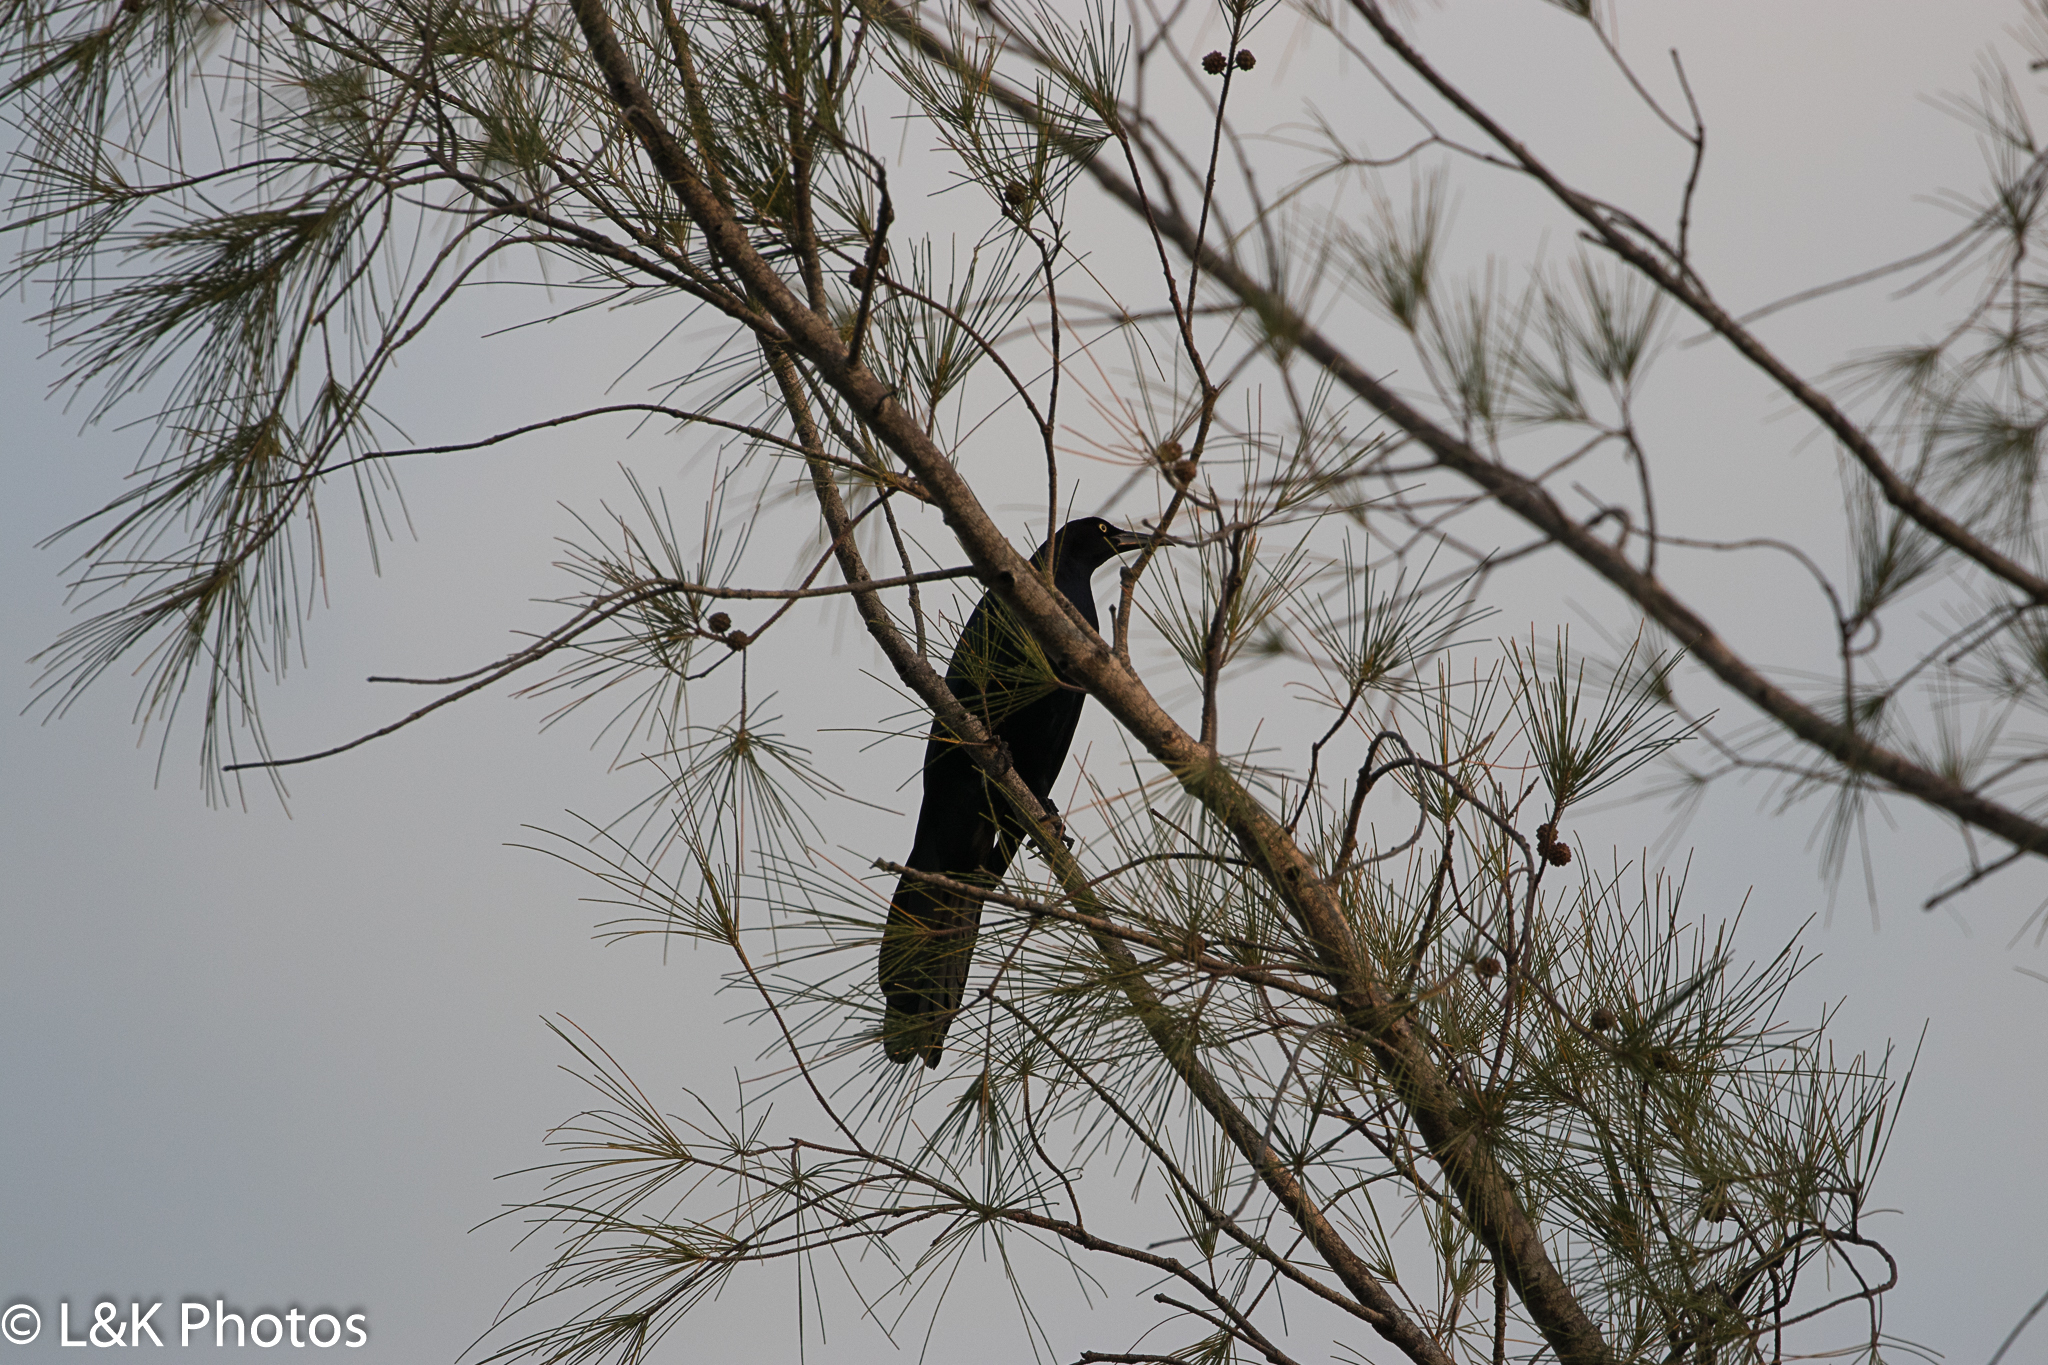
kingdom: Animalia
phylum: Chordata
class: Aves
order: Passeriformes
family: Icteridae
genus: Quiscalus
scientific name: Quiscalus mexicanus
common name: Great-tailed grackle
